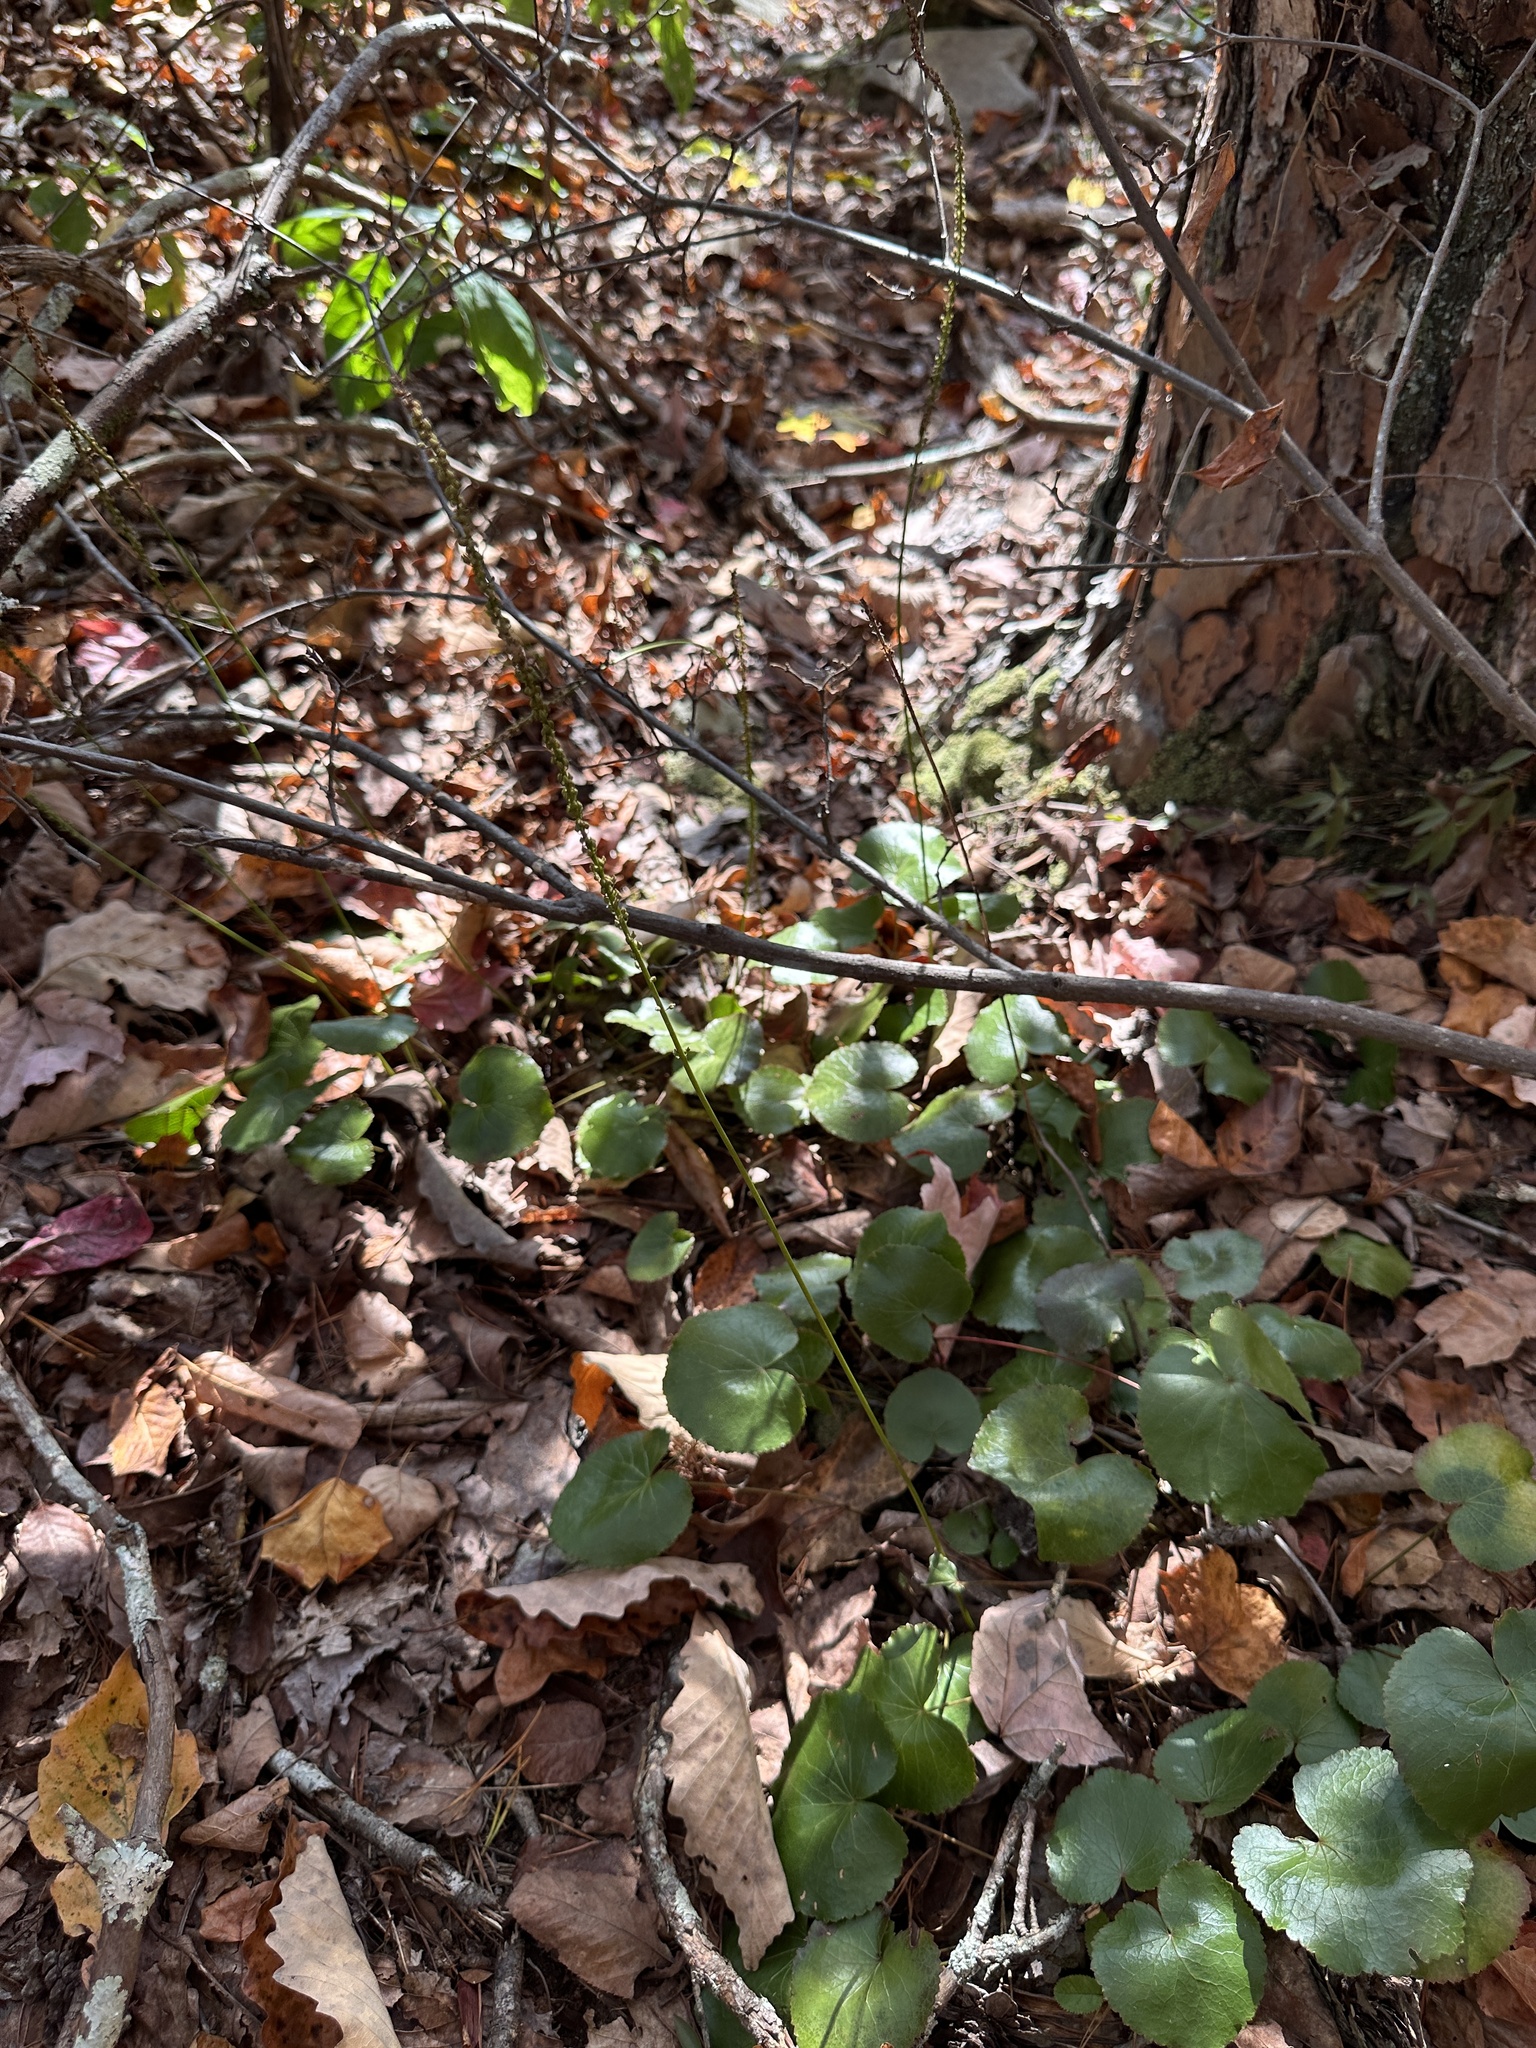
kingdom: Plantae
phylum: Tracheophyta
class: Magnoliopsida
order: Ericales
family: Diapensiaceae
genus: Galax
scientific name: Galax urceolata
